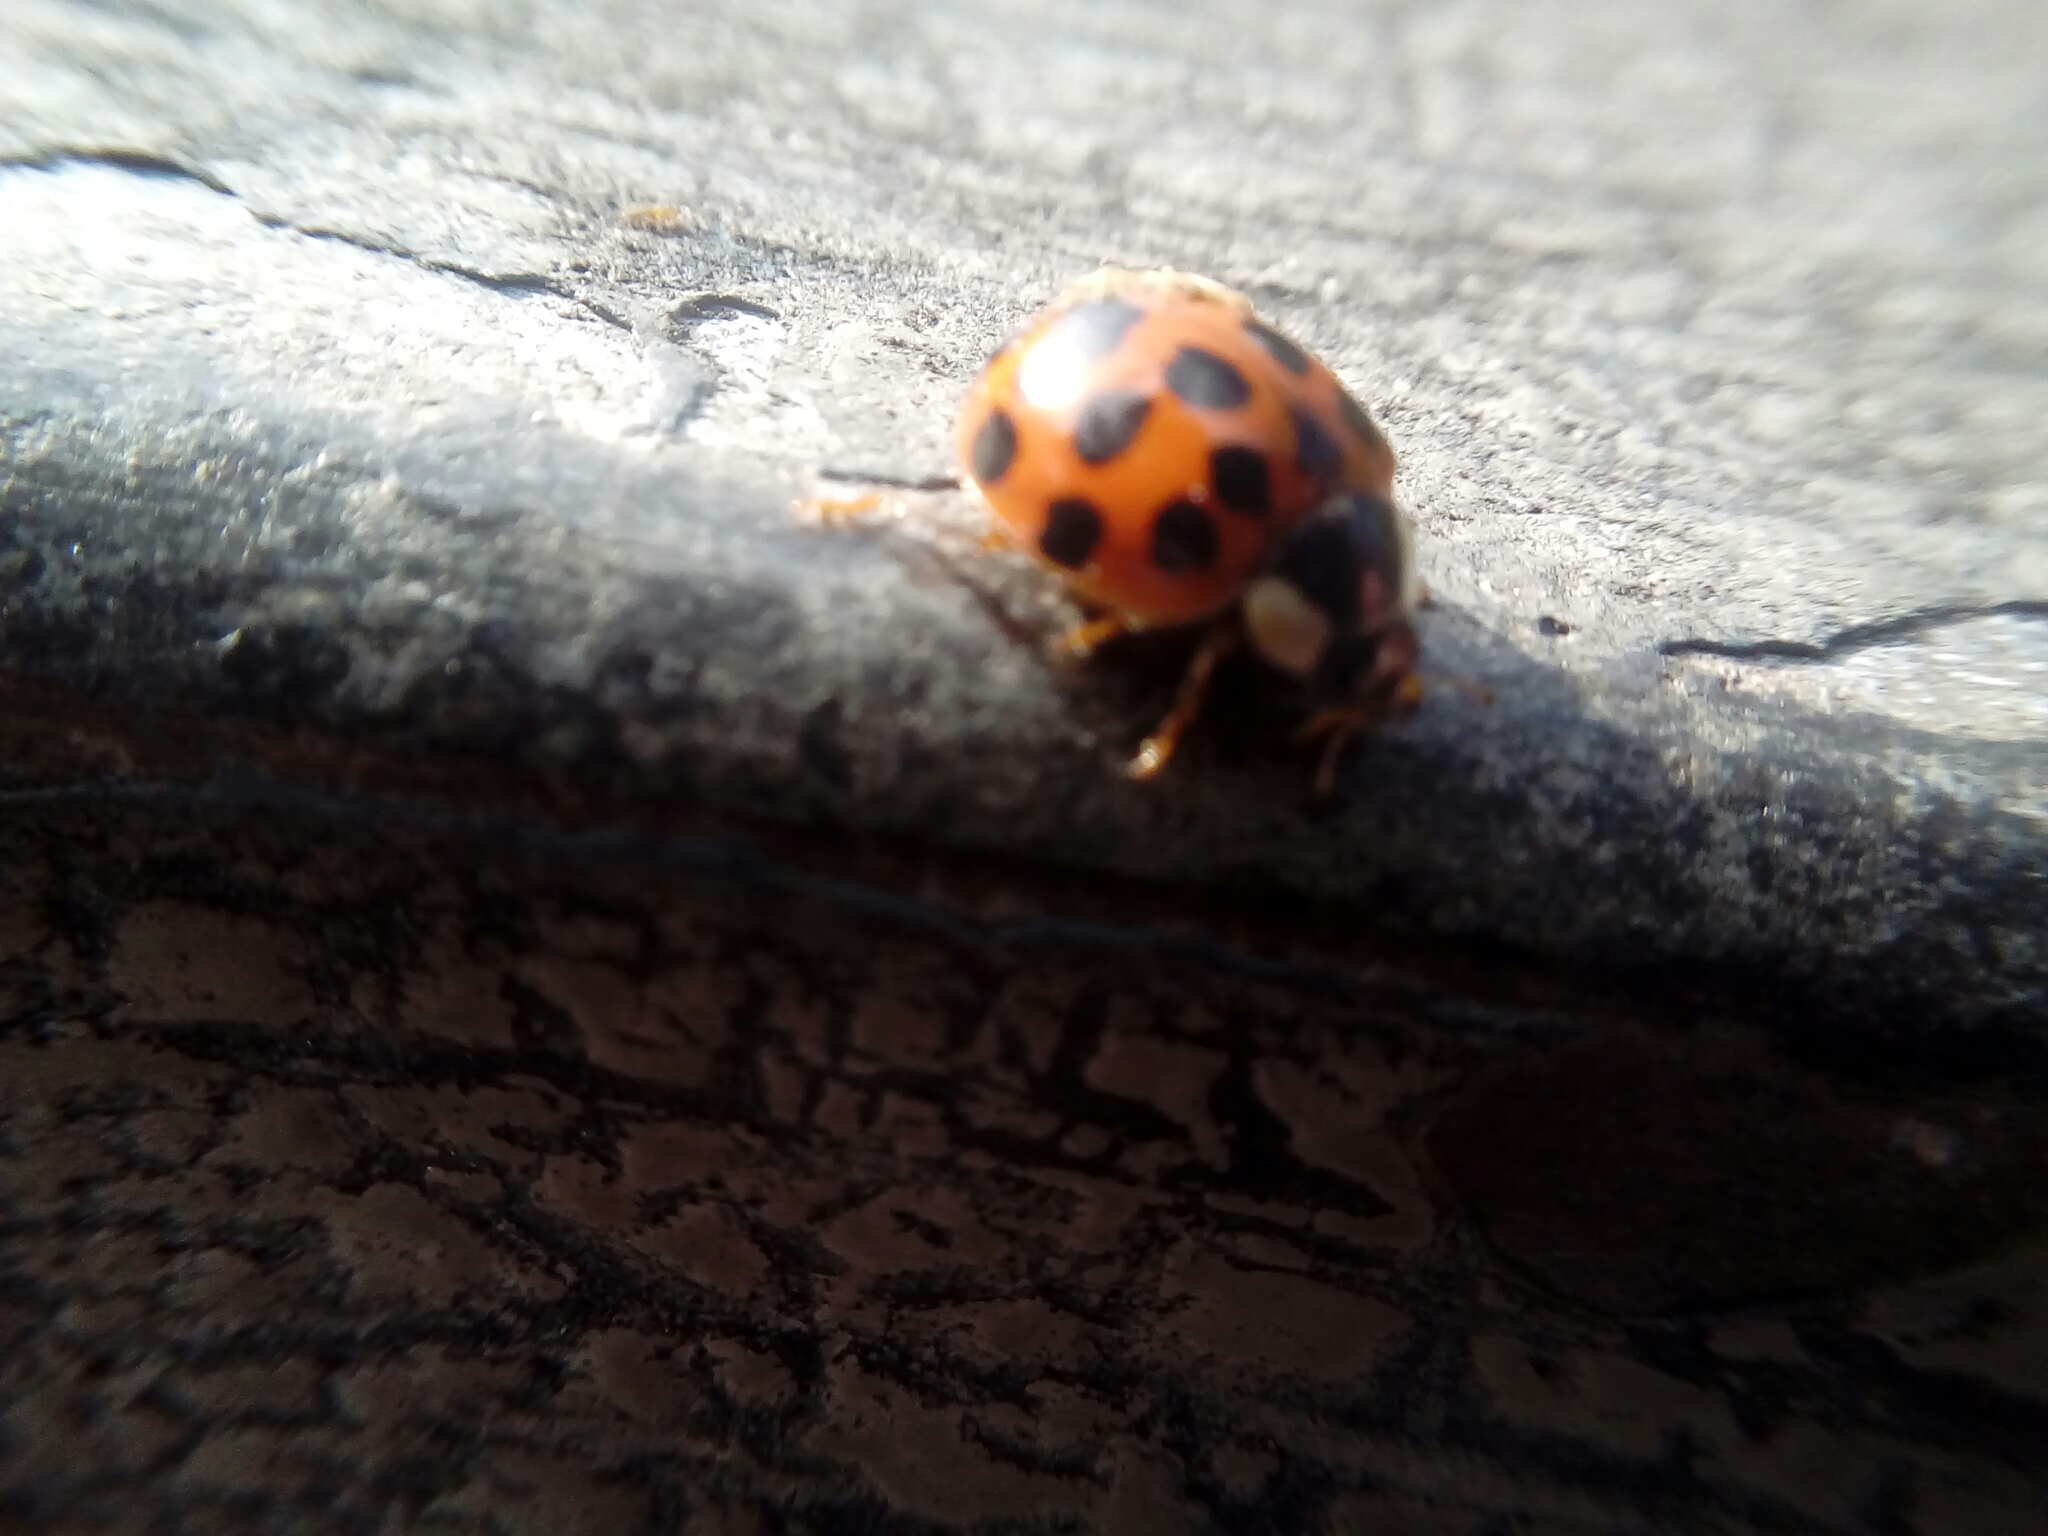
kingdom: Animalia
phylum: Arthropoda
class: Insecta
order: Coleoptera
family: Coccinellidae
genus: Harmonia
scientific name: Harmonia axyridis
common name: Harlequin ladybird
